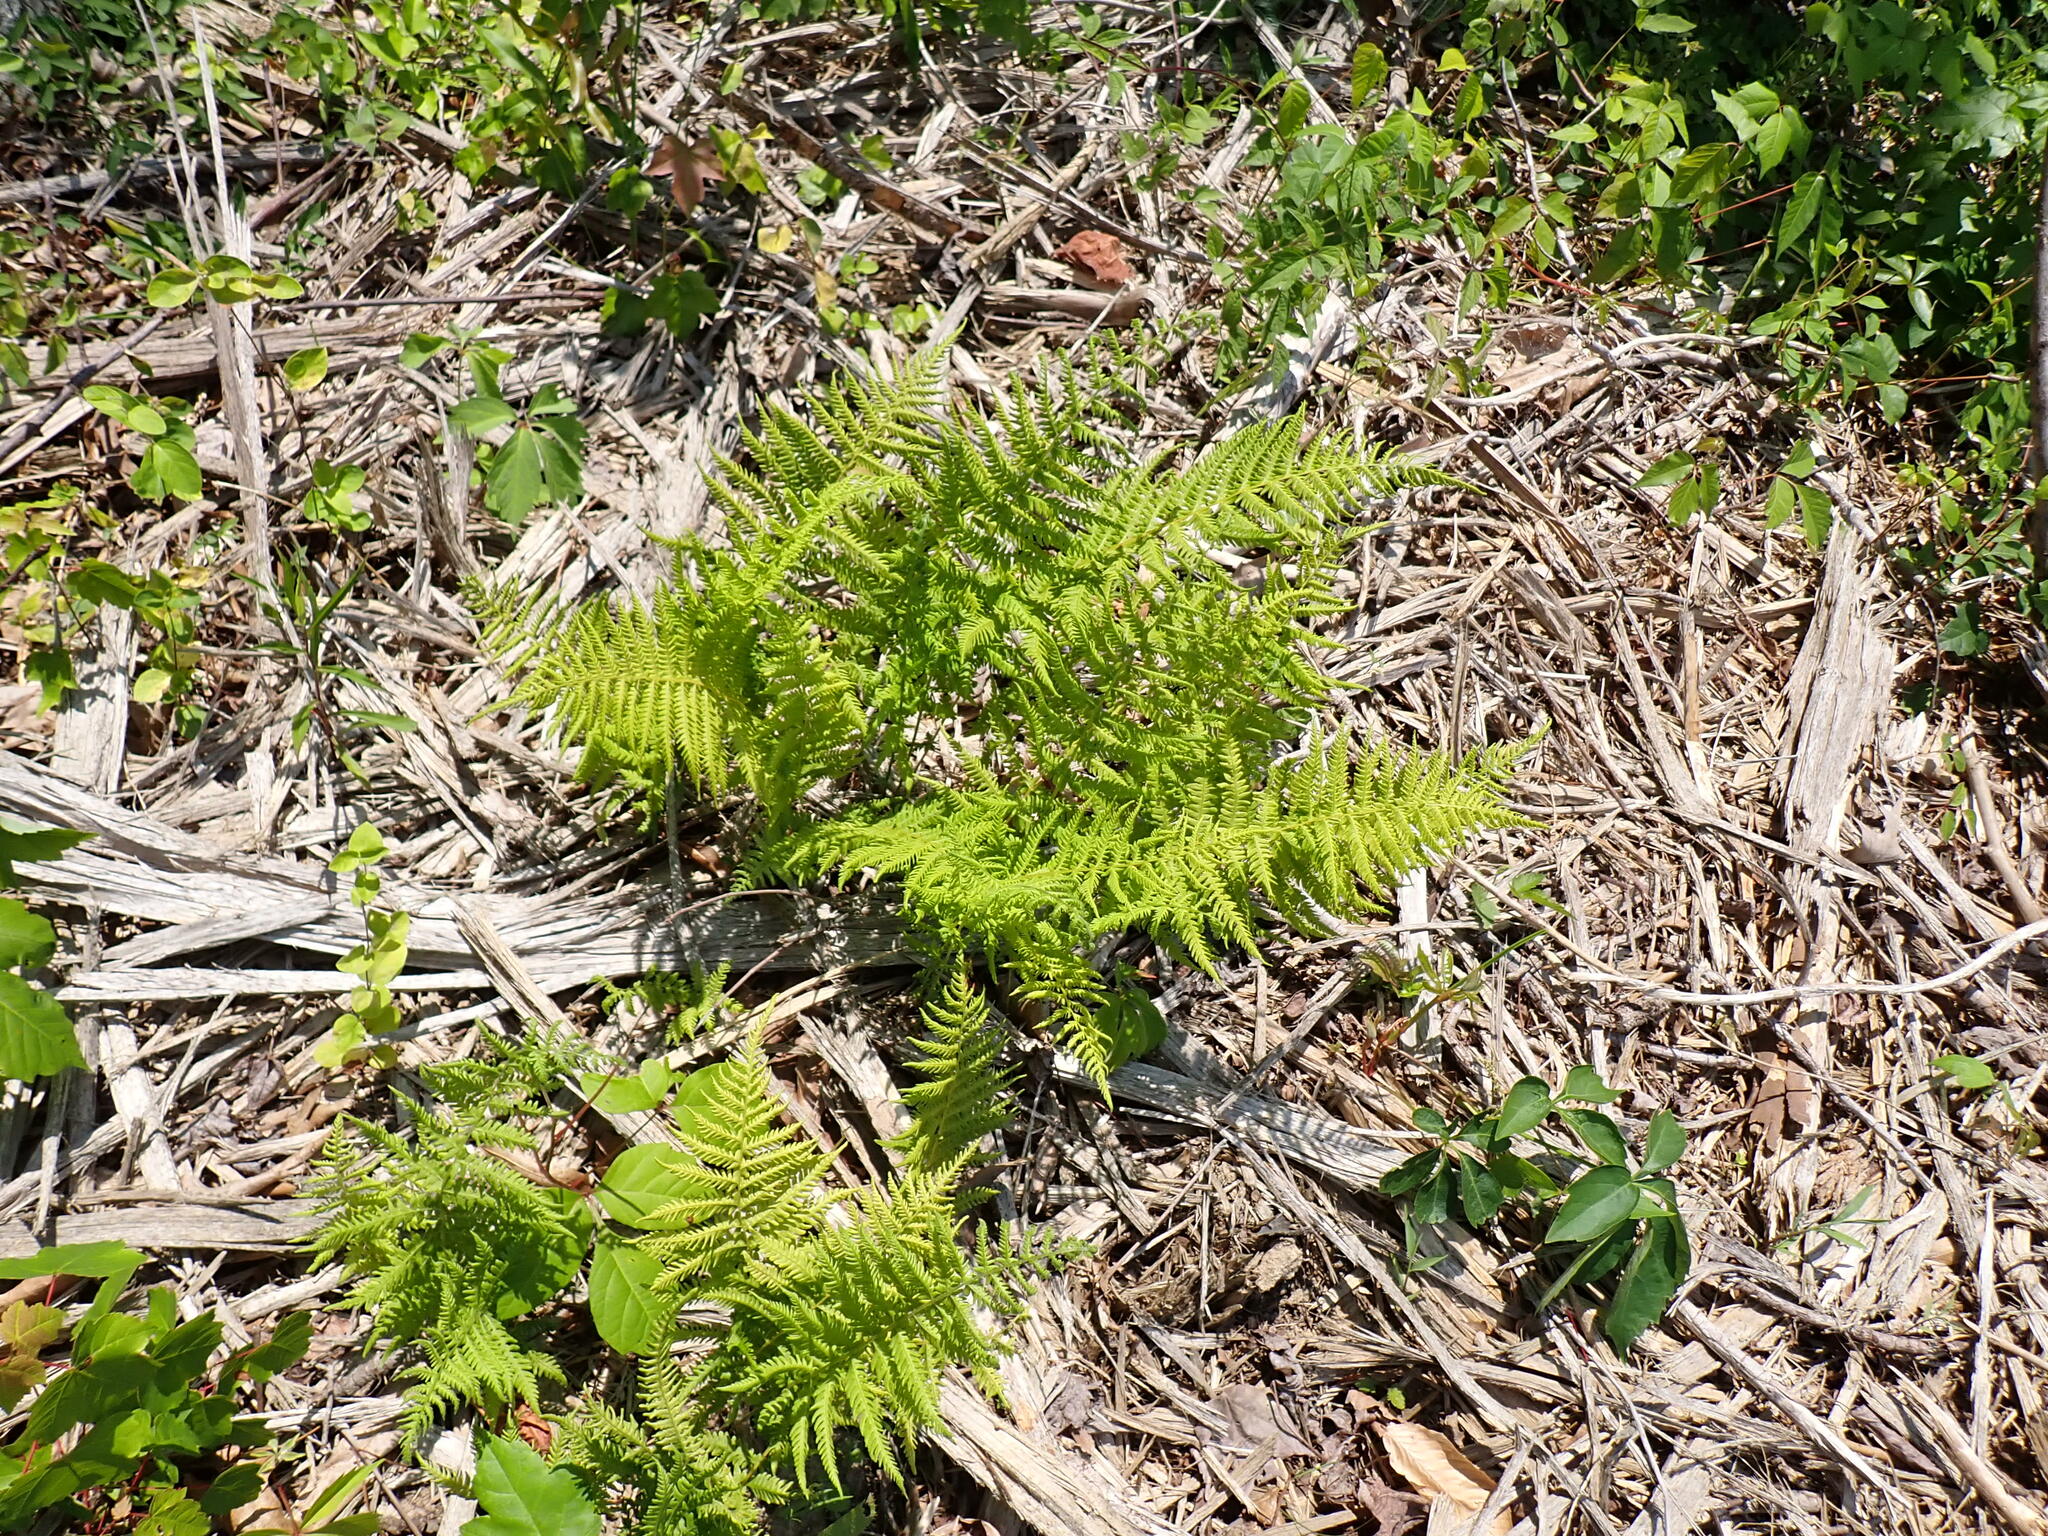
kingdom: Plantae
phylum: Tracheophyta
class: Polypodiopsida
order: Polypodiales
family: Thelypteridaceae
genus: Amauropelta
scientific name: Amauropelta noveboracensis
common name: New york fern
